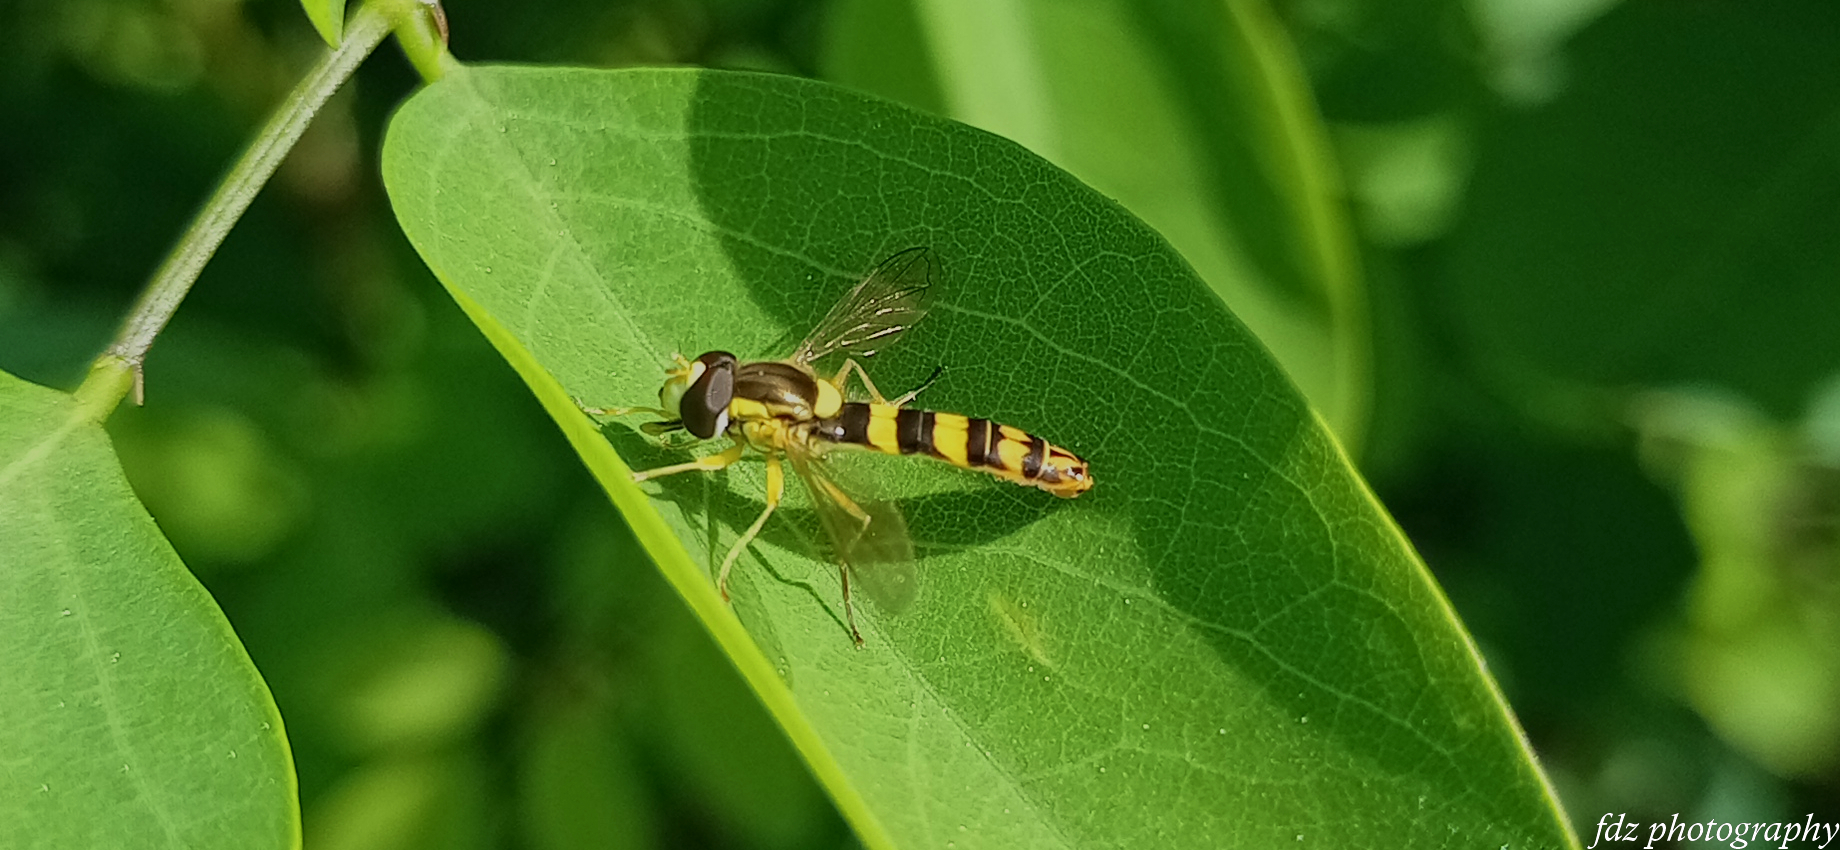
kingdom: Animalia
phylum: Arthropoda
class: Insecta
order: Diptera
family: Syrphidae
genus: Sphaerophoria
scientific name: Sphaerophoria scripta
